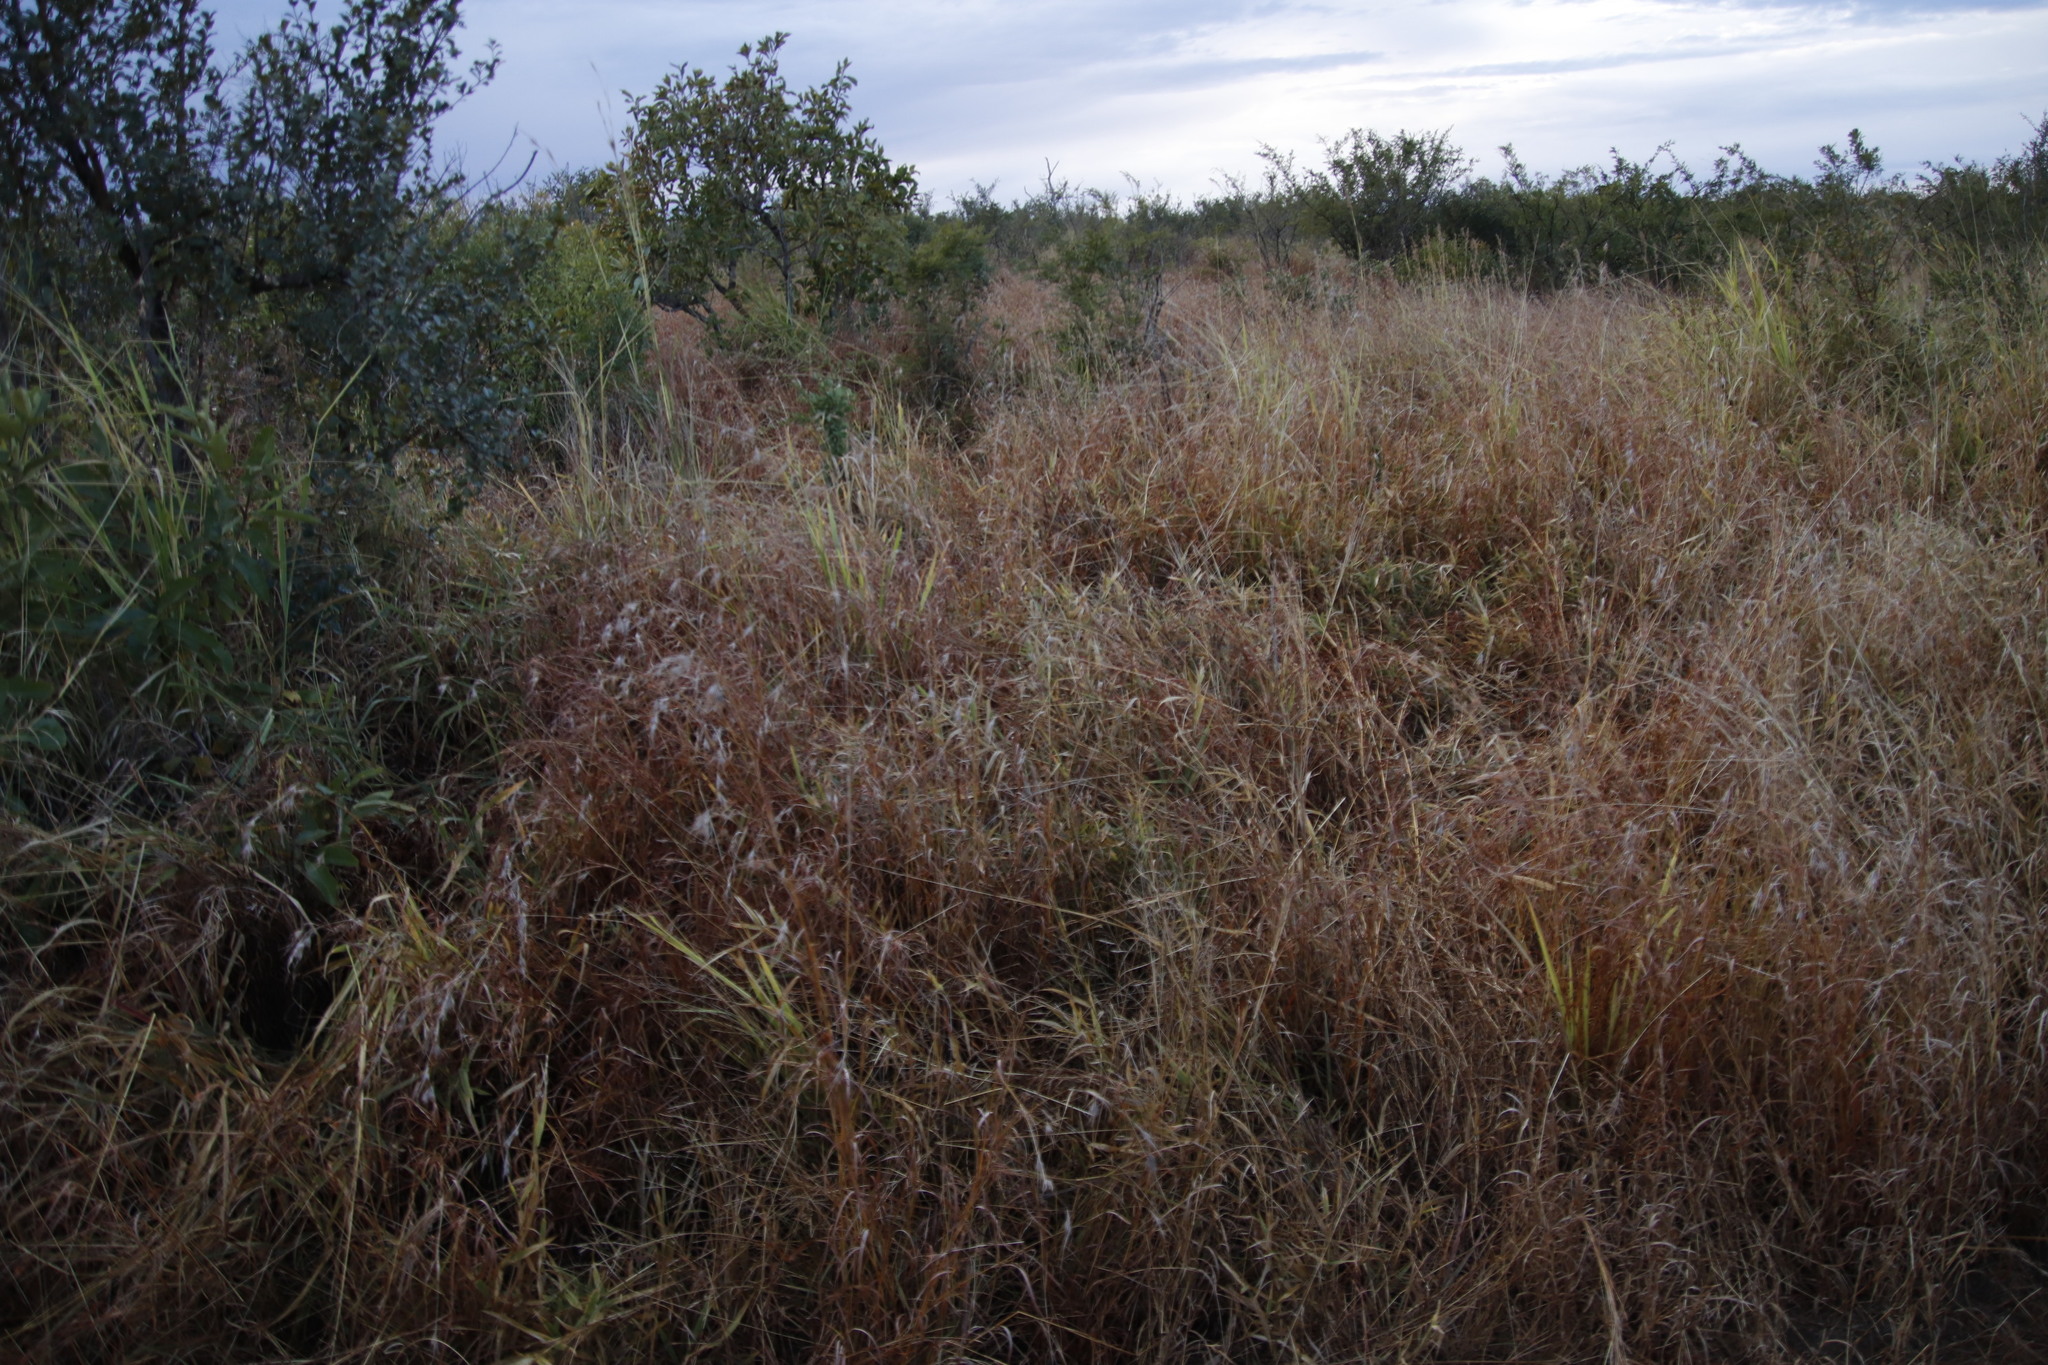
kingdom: Plantae
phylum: Tracheophyta
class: Liliopsida
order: Poales
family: Poaceae
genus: Themeda
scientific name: Themeda triandra
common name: Kangaroo grass
